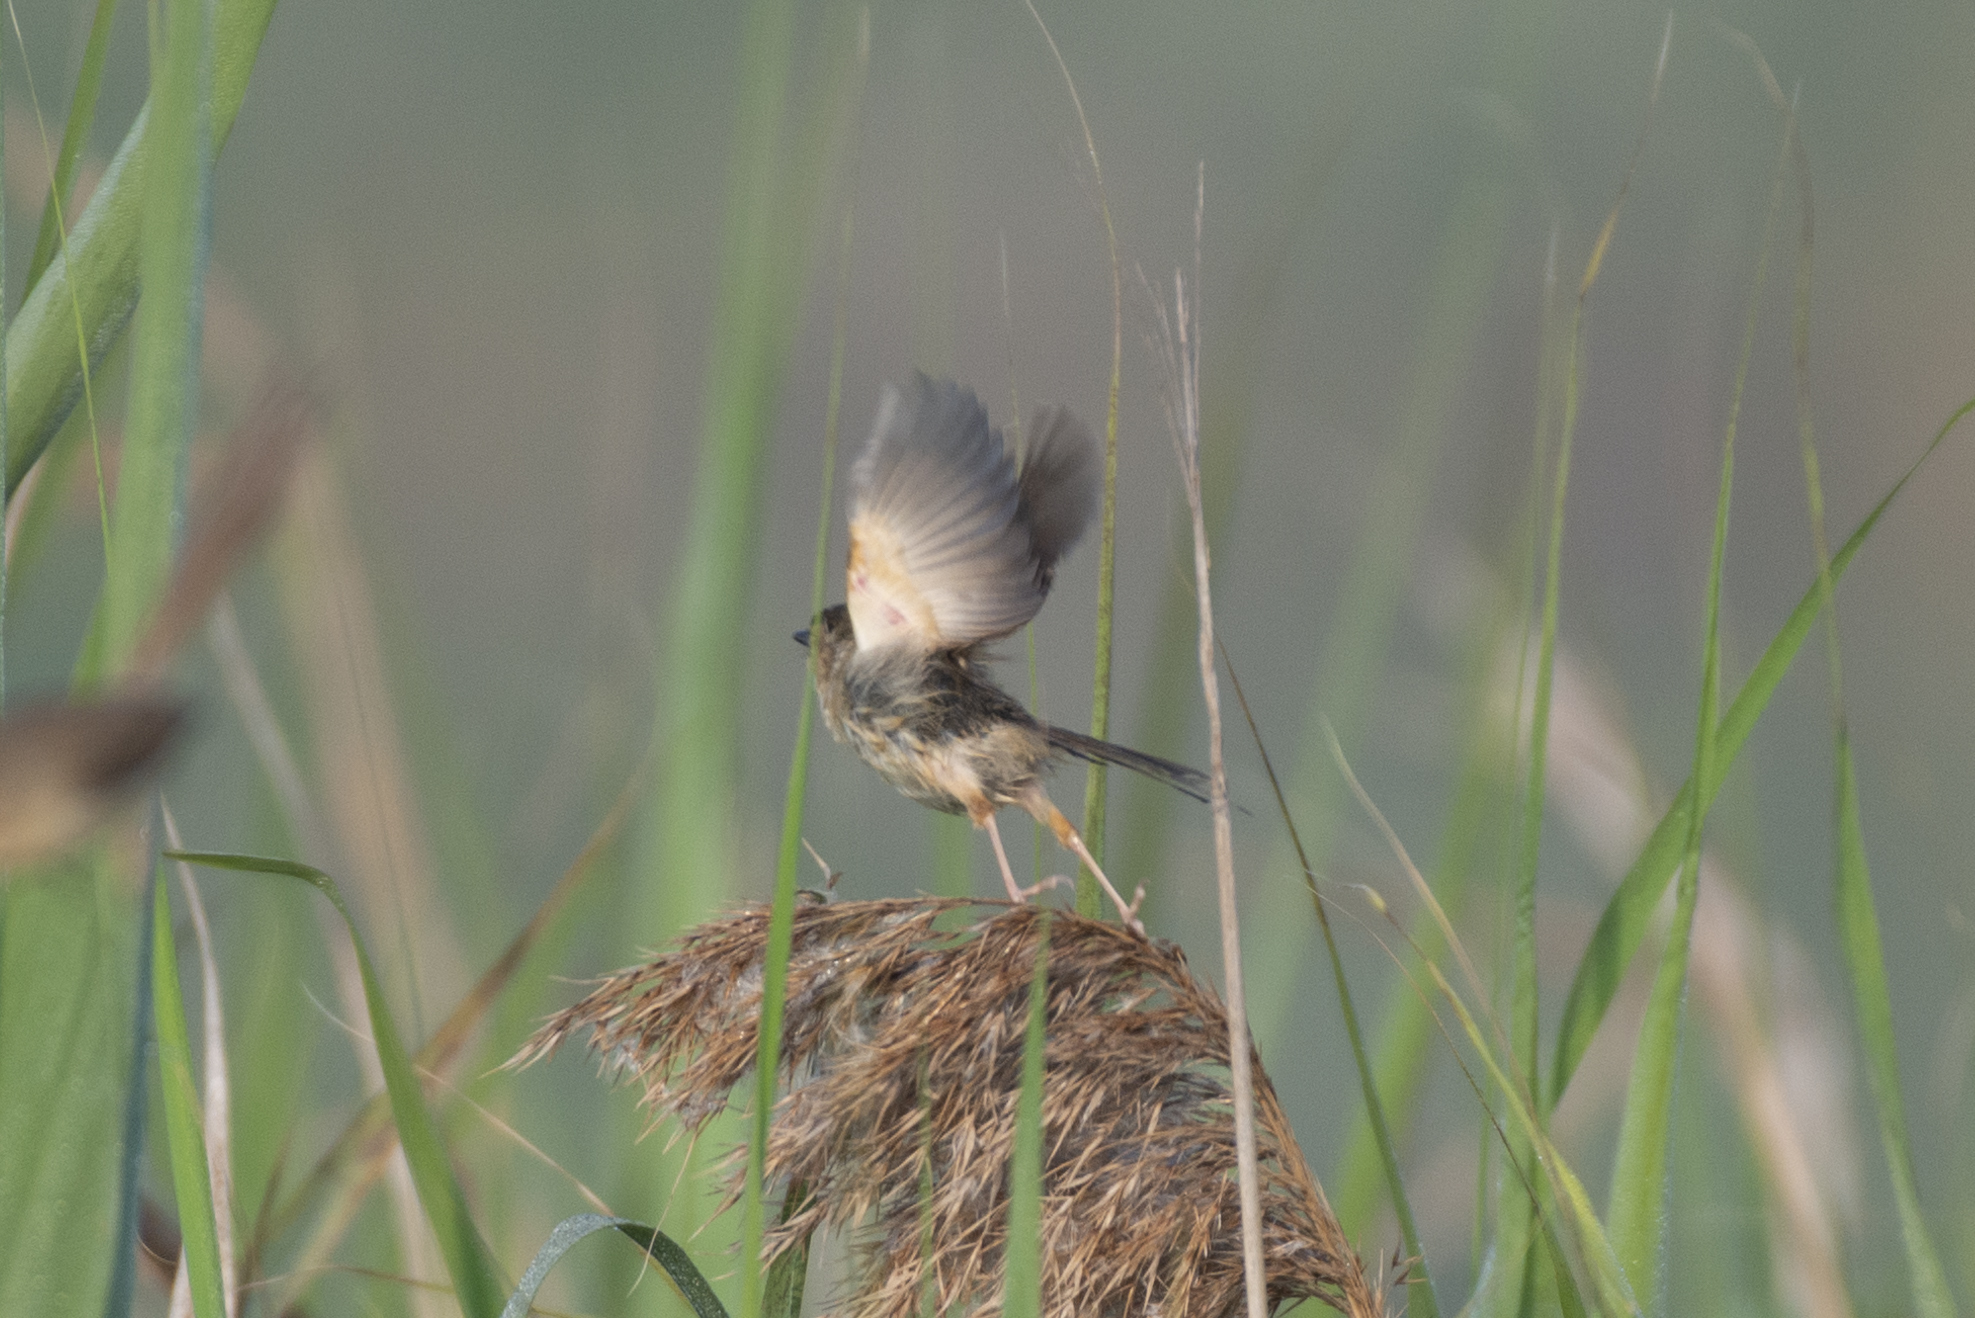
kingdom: Animalia
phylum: Chordata
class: Aves
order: Passeriformes
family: Cisticolidae
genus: Prinia
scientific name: Prinia inornata
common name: Plain prinia
